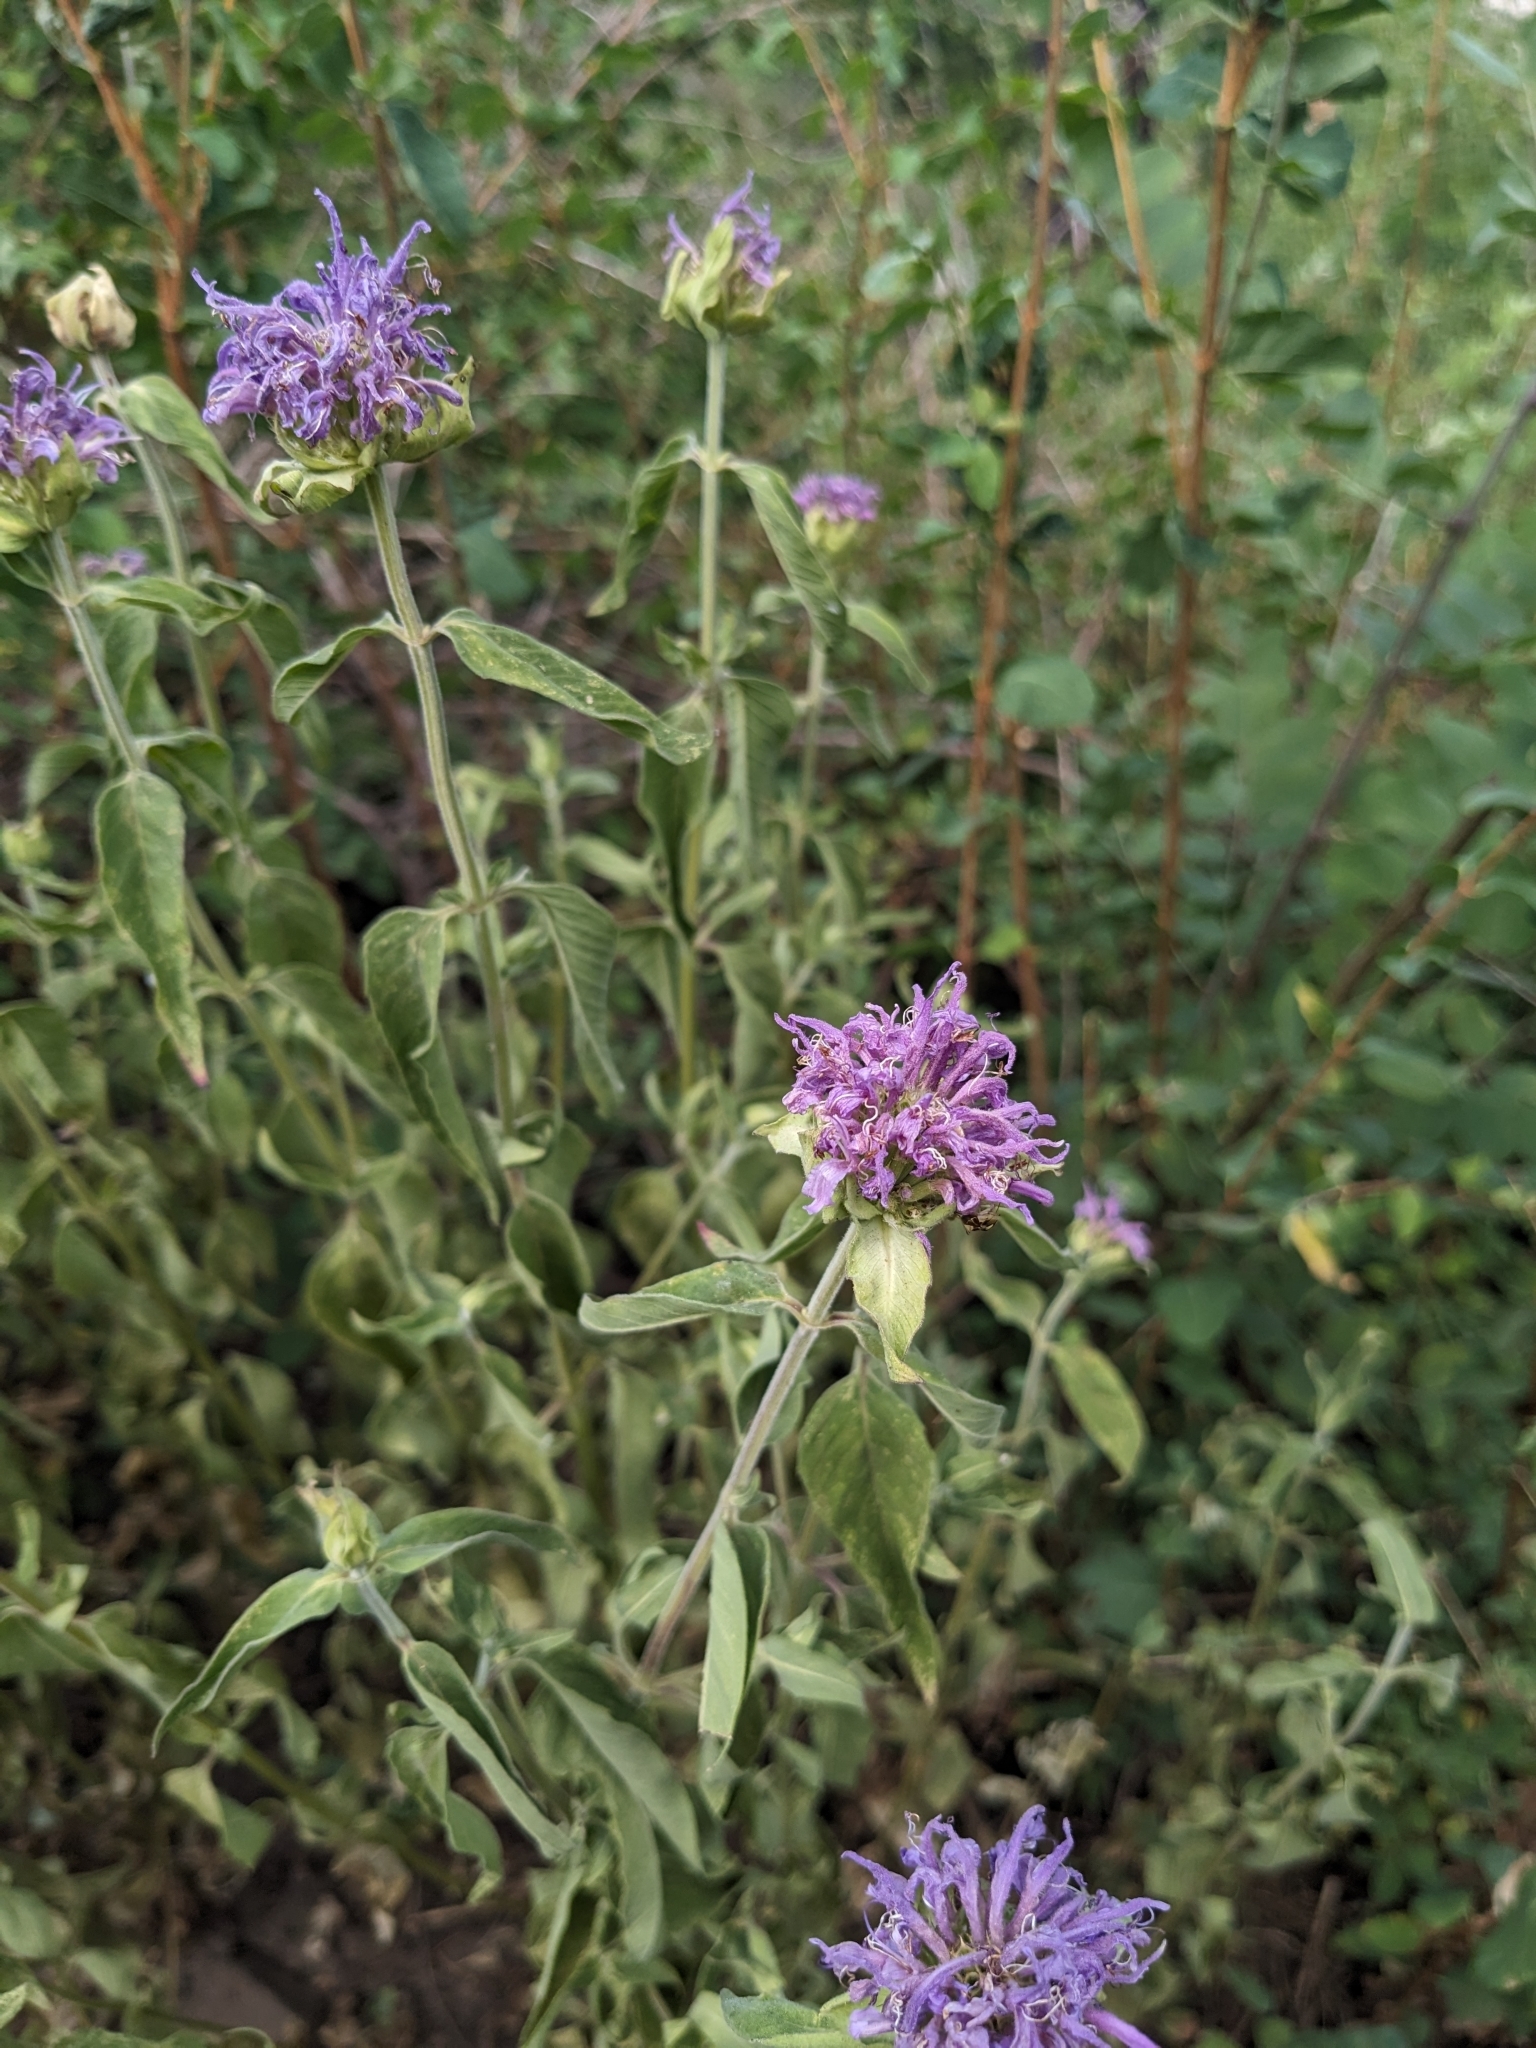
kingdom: Plantae
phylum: Tracheophyta
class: Magnoliopsida
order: Lamiales
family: Lamiaceae
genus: Monarda
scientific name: Monarda fistulosa
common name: Purple beebalm
